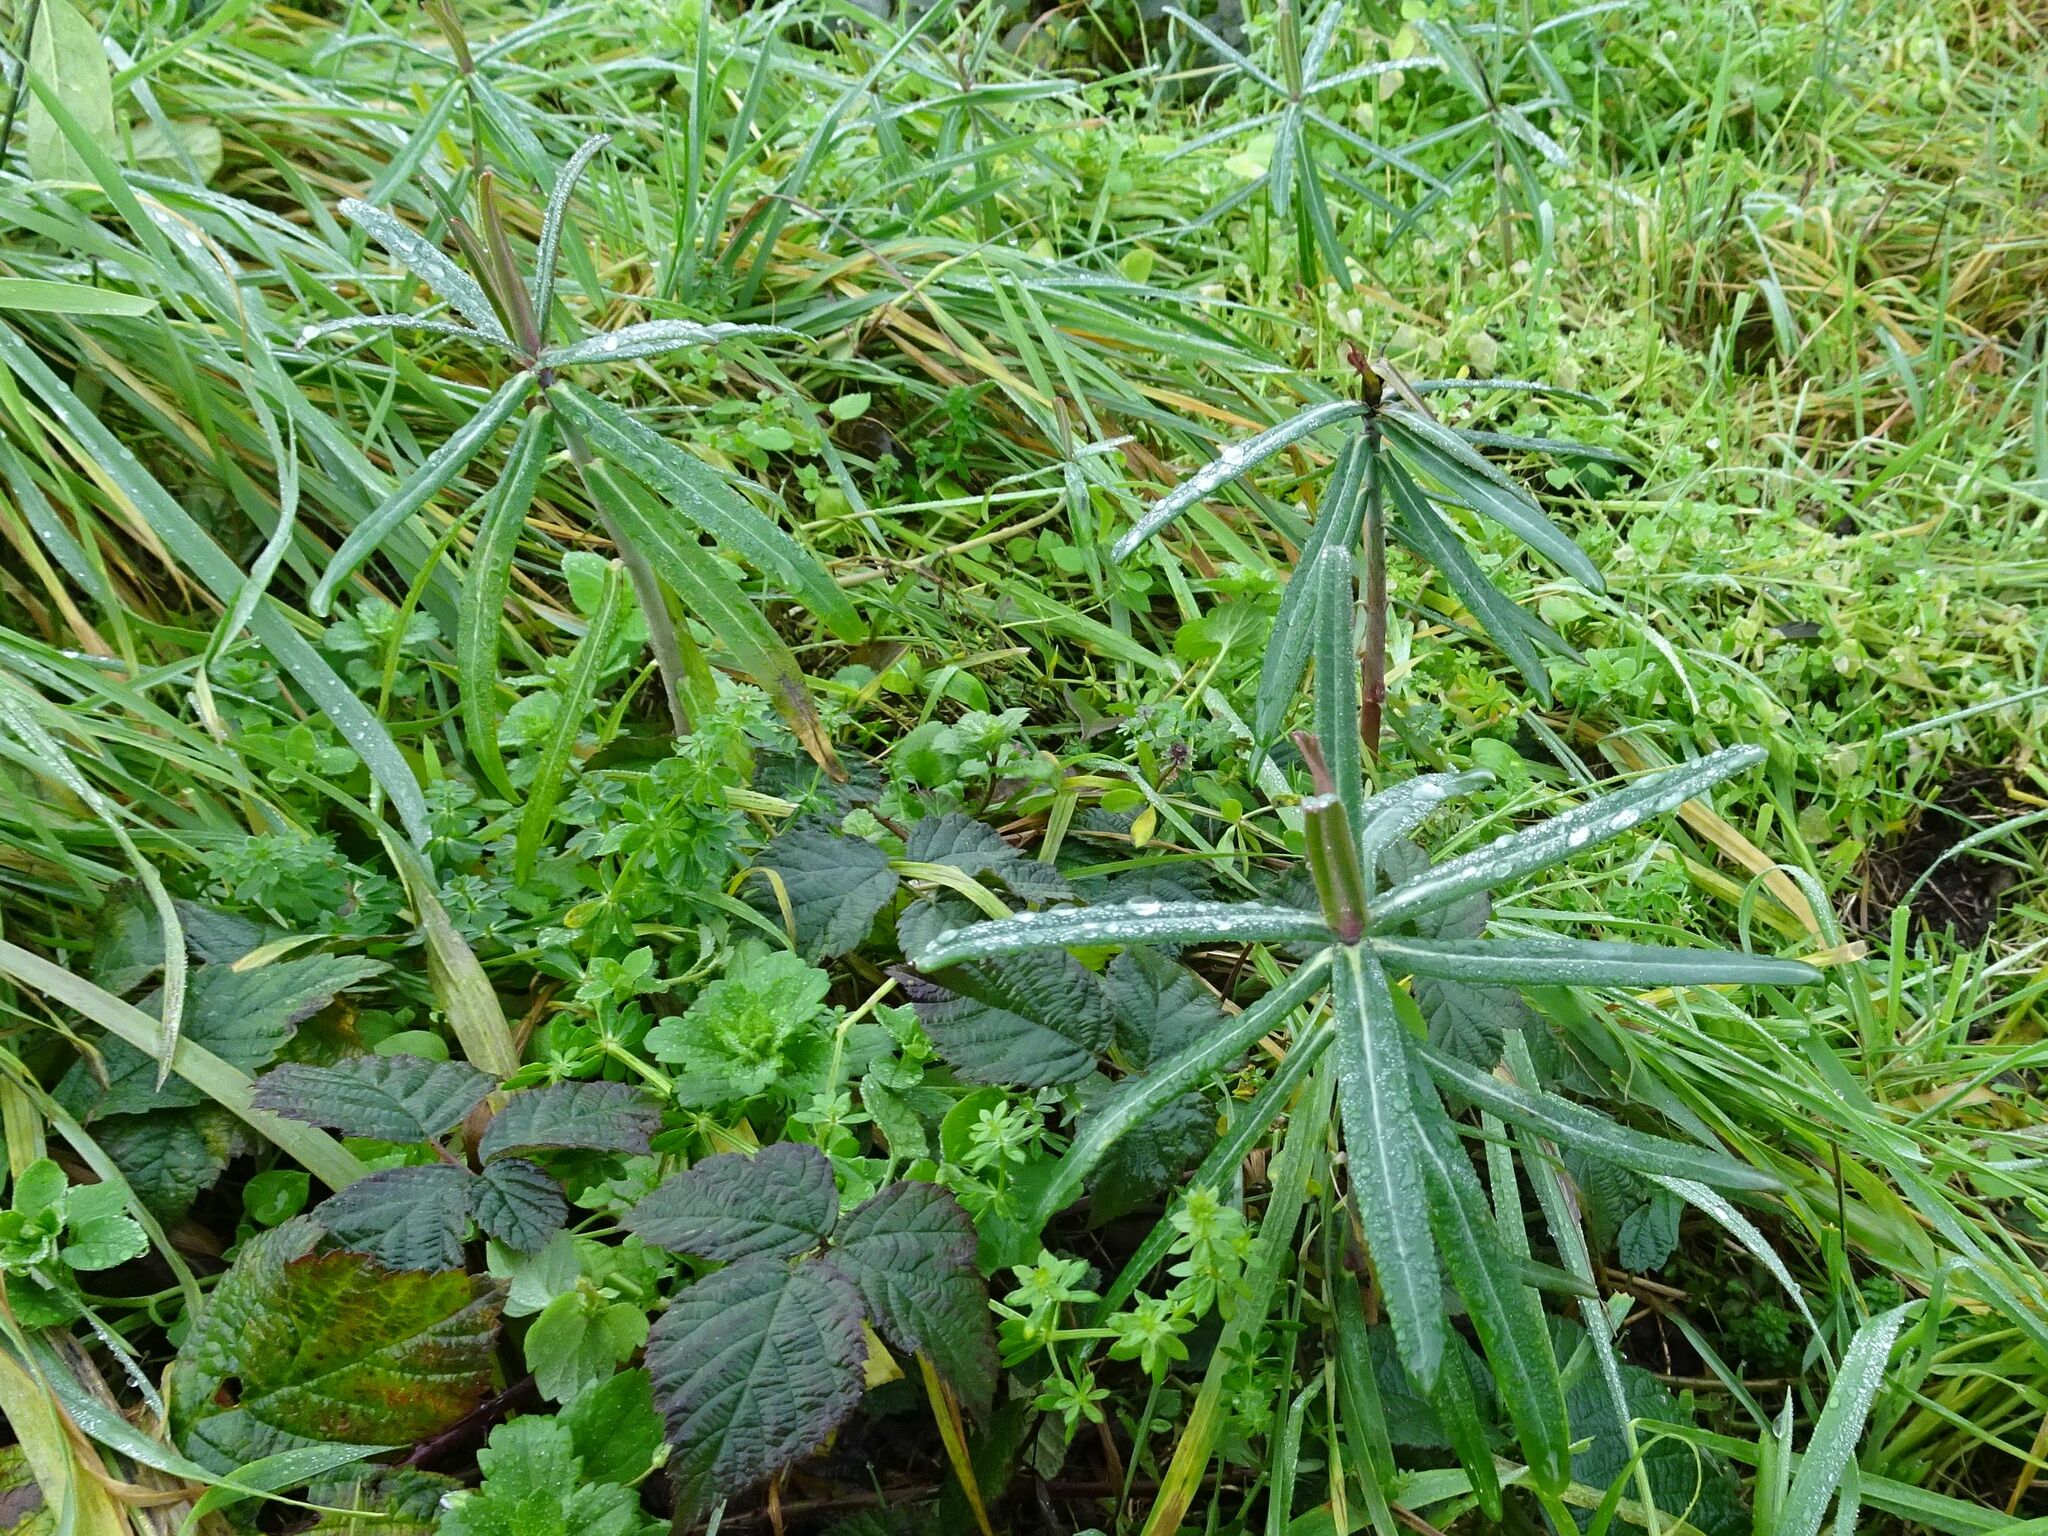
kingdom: Plantae
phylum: Tracheophyta
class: Magnoliopsida
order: Malpighiales
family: Euphorbiaceae
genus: Euphorbia
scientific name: Euphorbia lathyris
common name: Caper spurge
